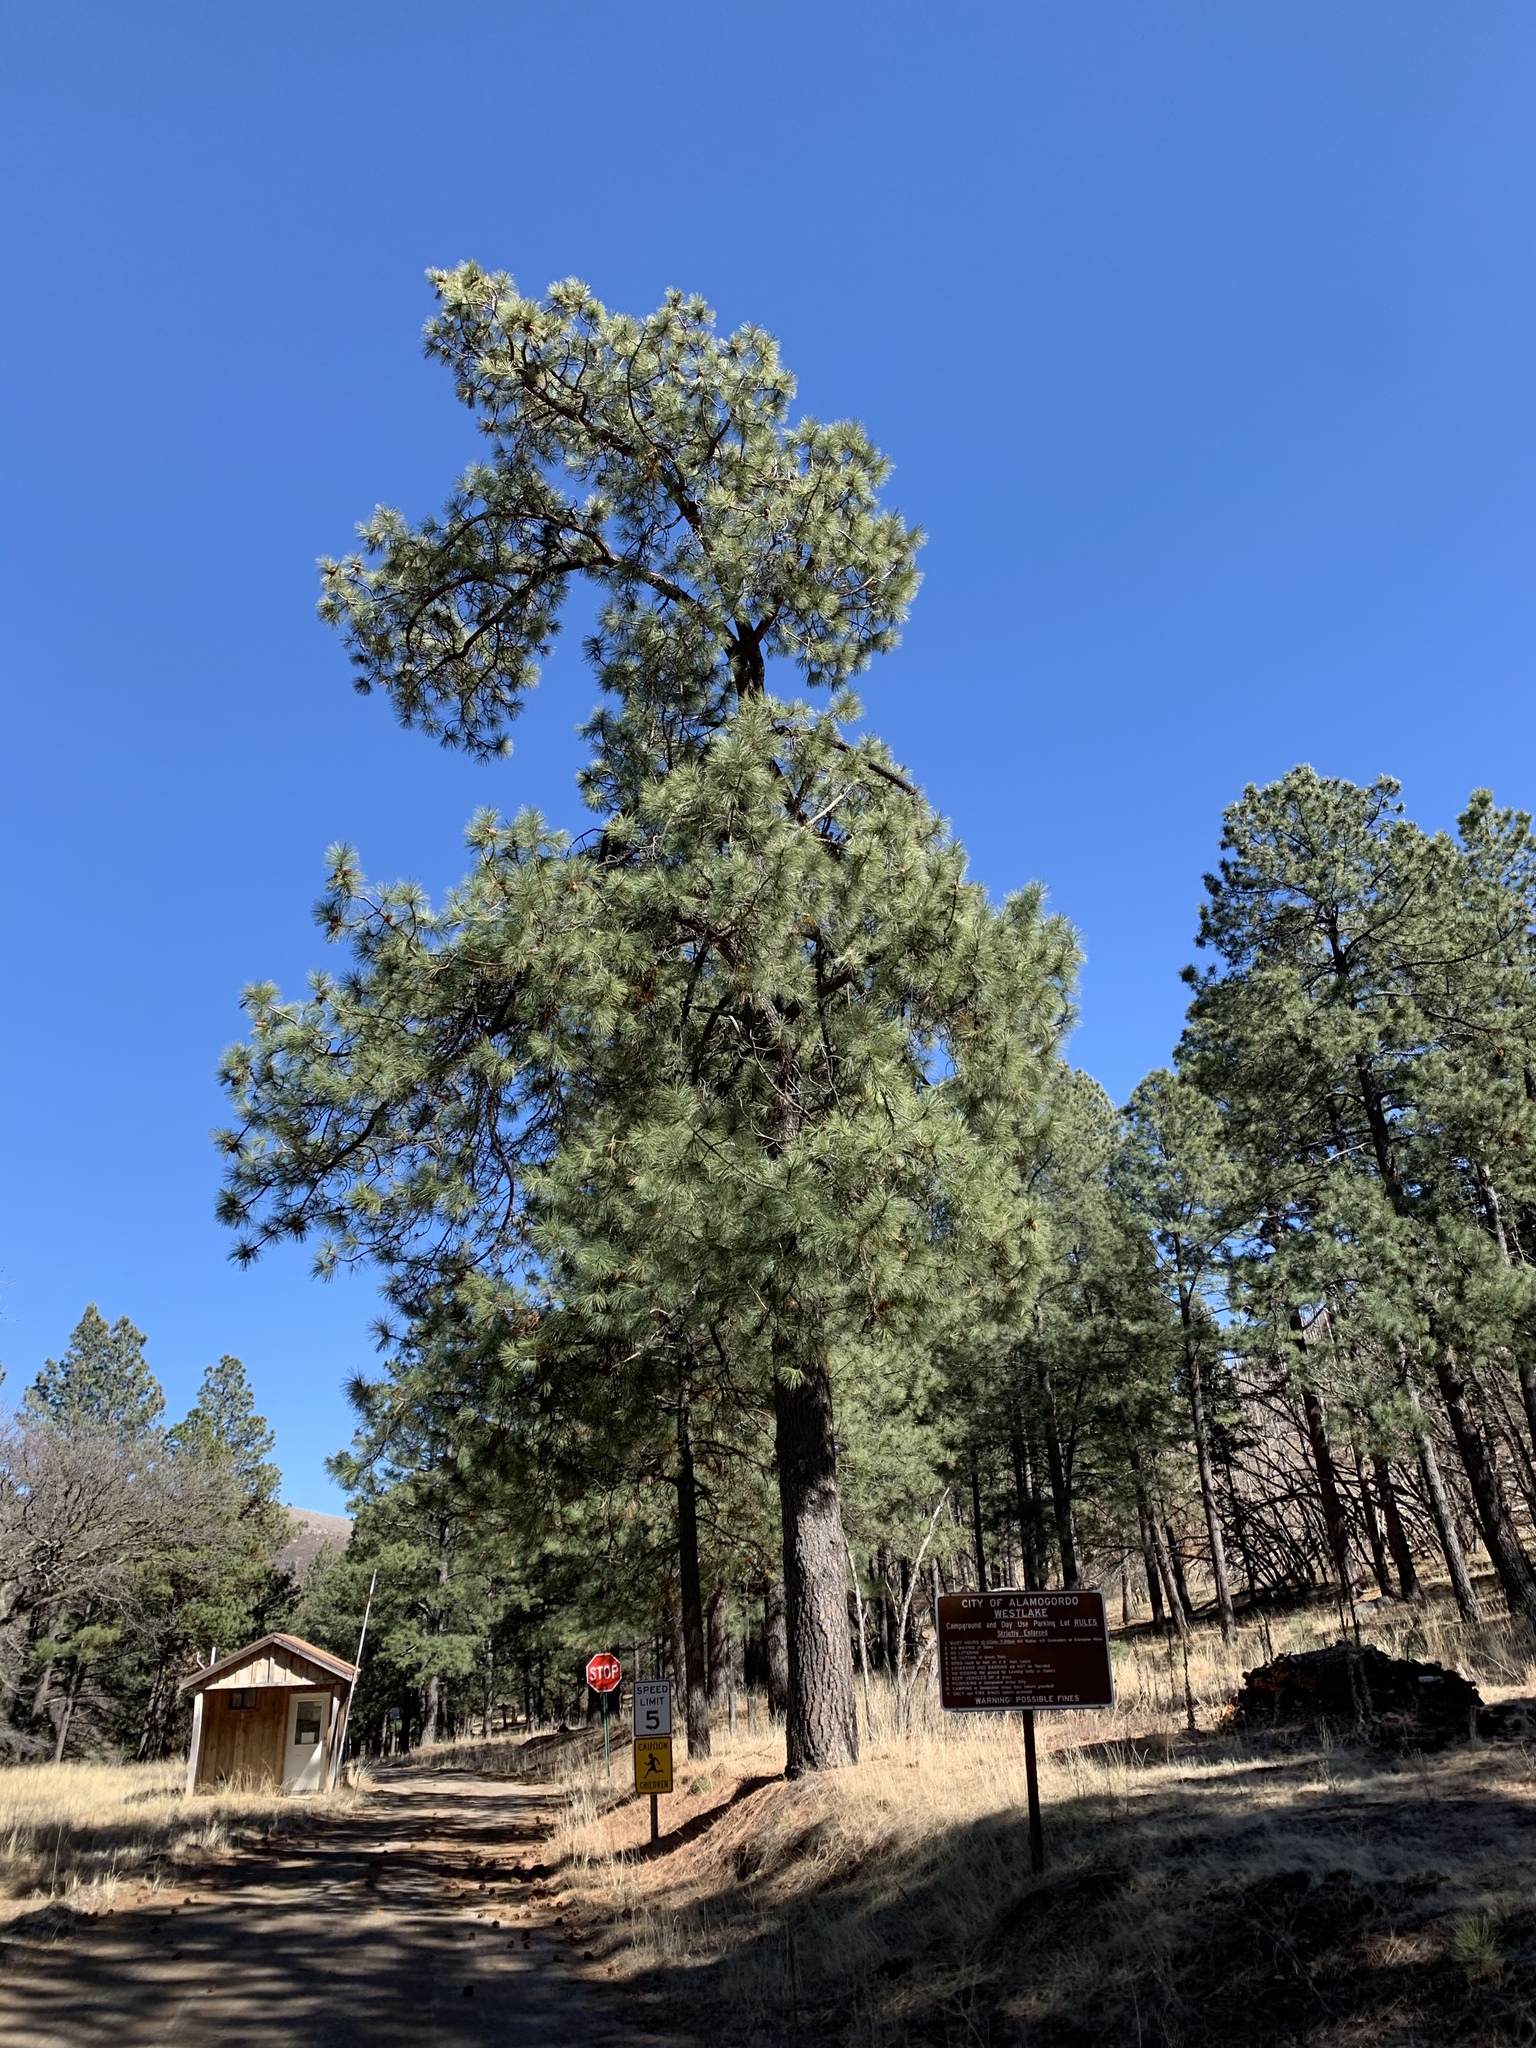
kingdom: Plantae
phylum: Tracheophyta
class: Pinopsida
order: Pinales
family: Pinaceae
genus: Pinus
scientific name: Pinus ponderosa
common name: Western yellow-pine
